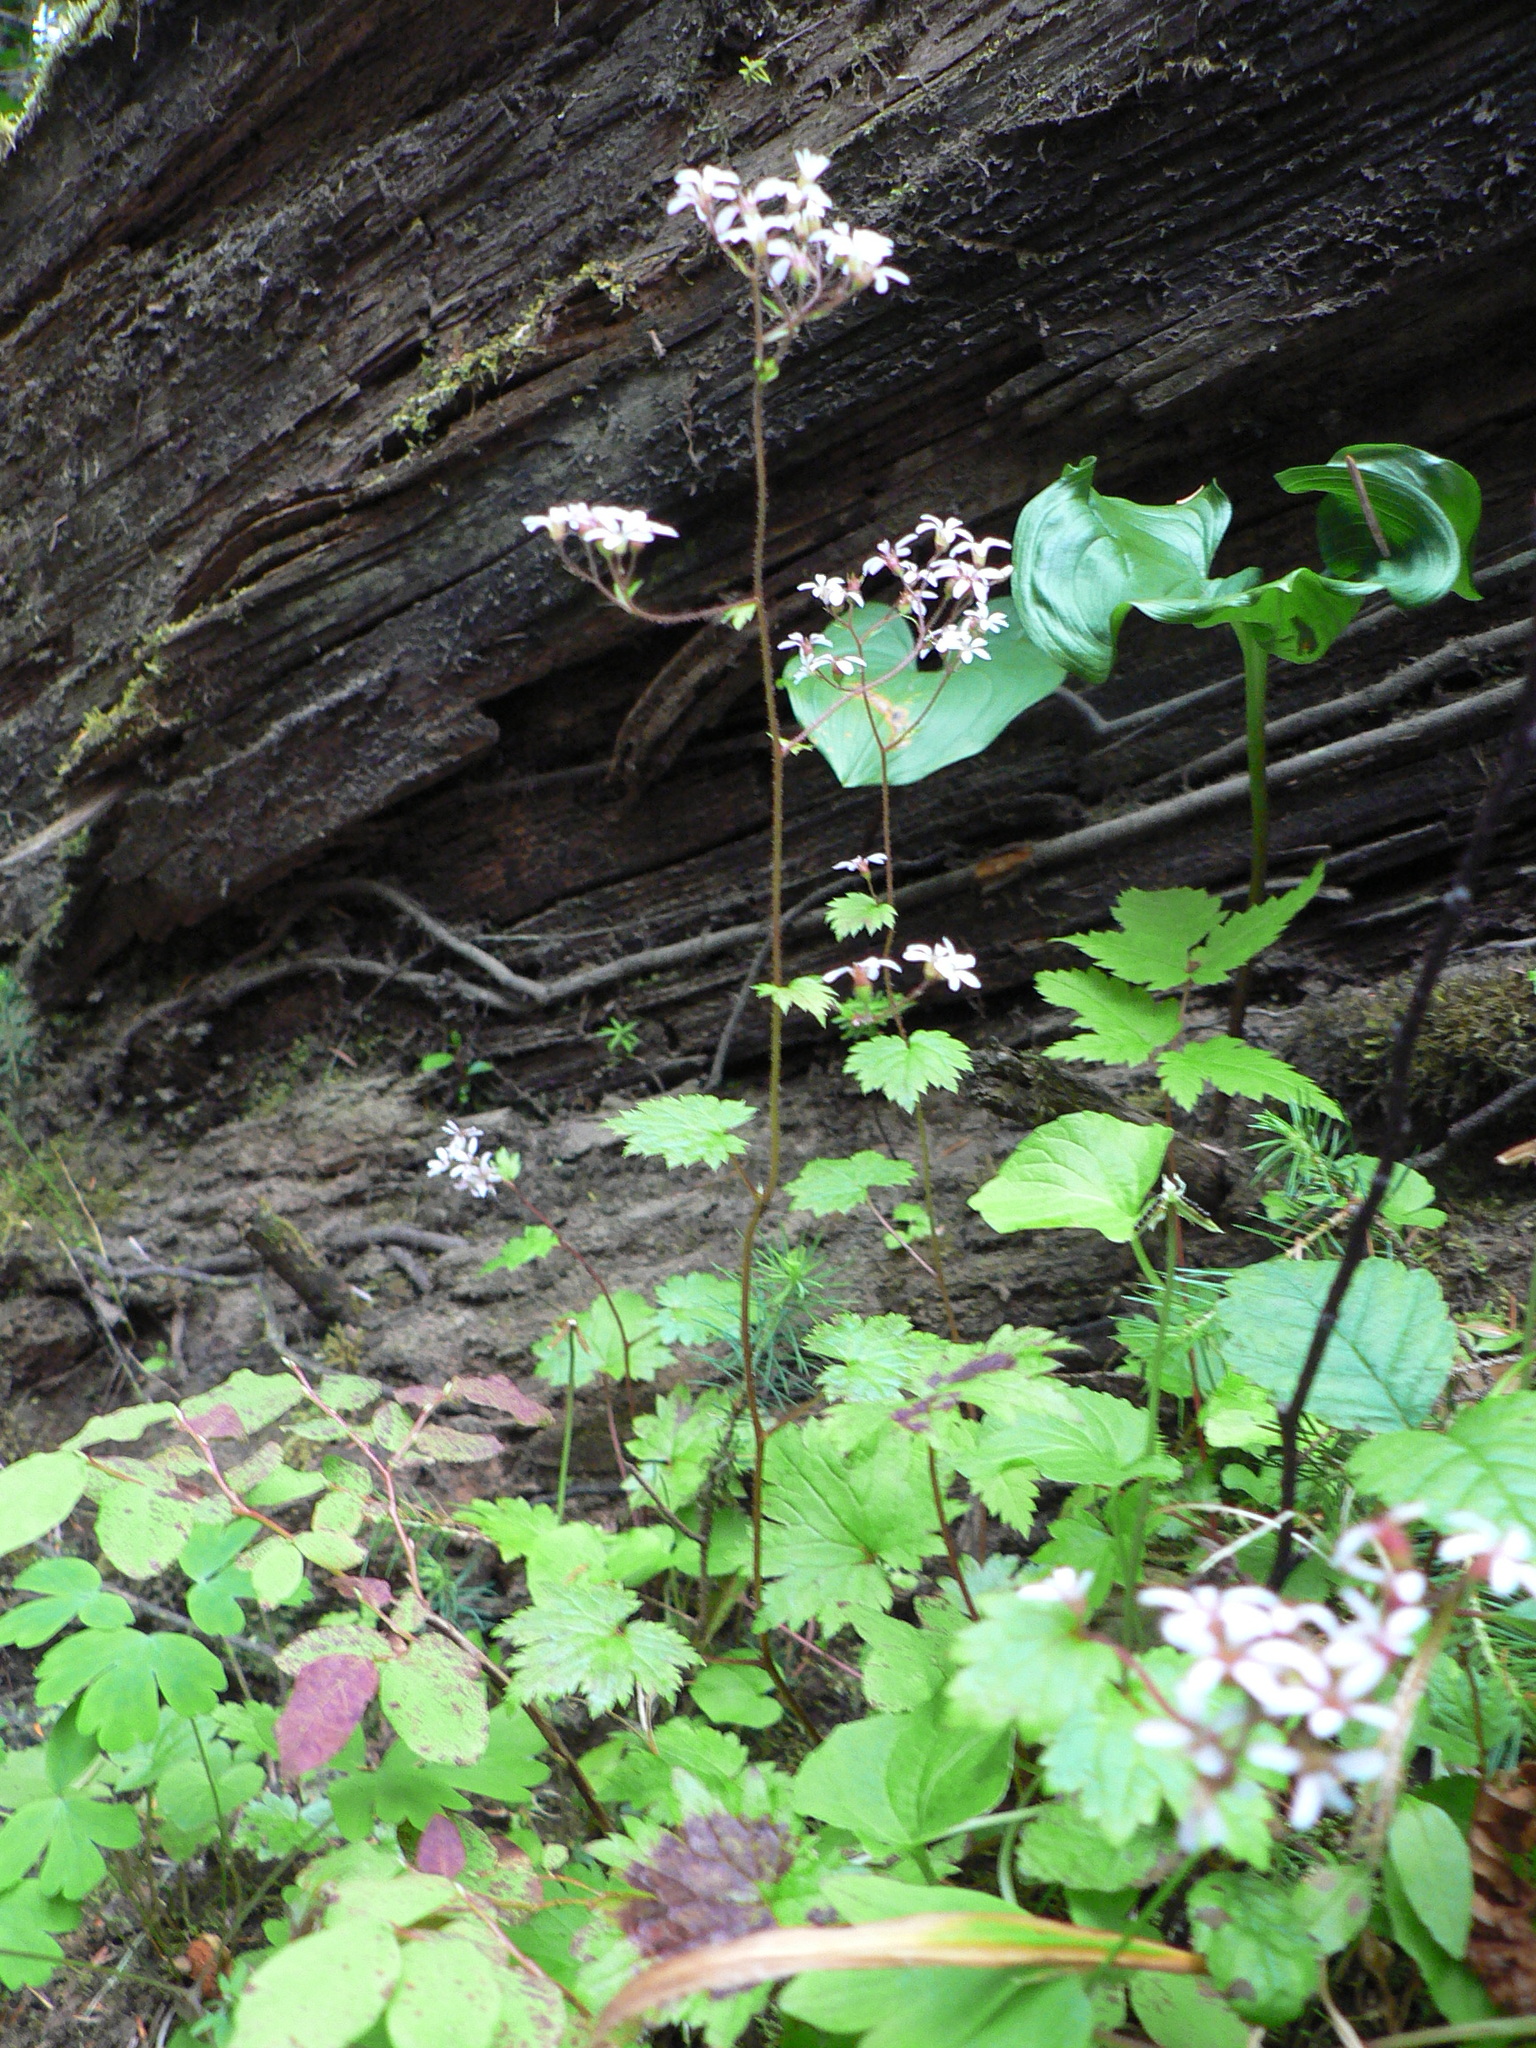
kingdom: Plantae
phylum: Tracheophyta
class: Magnoliopsida
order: Saxifragales
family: Saxifragaceae
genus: Boykinia
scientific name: Boykinia occidentalis
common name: Coast boykinia
